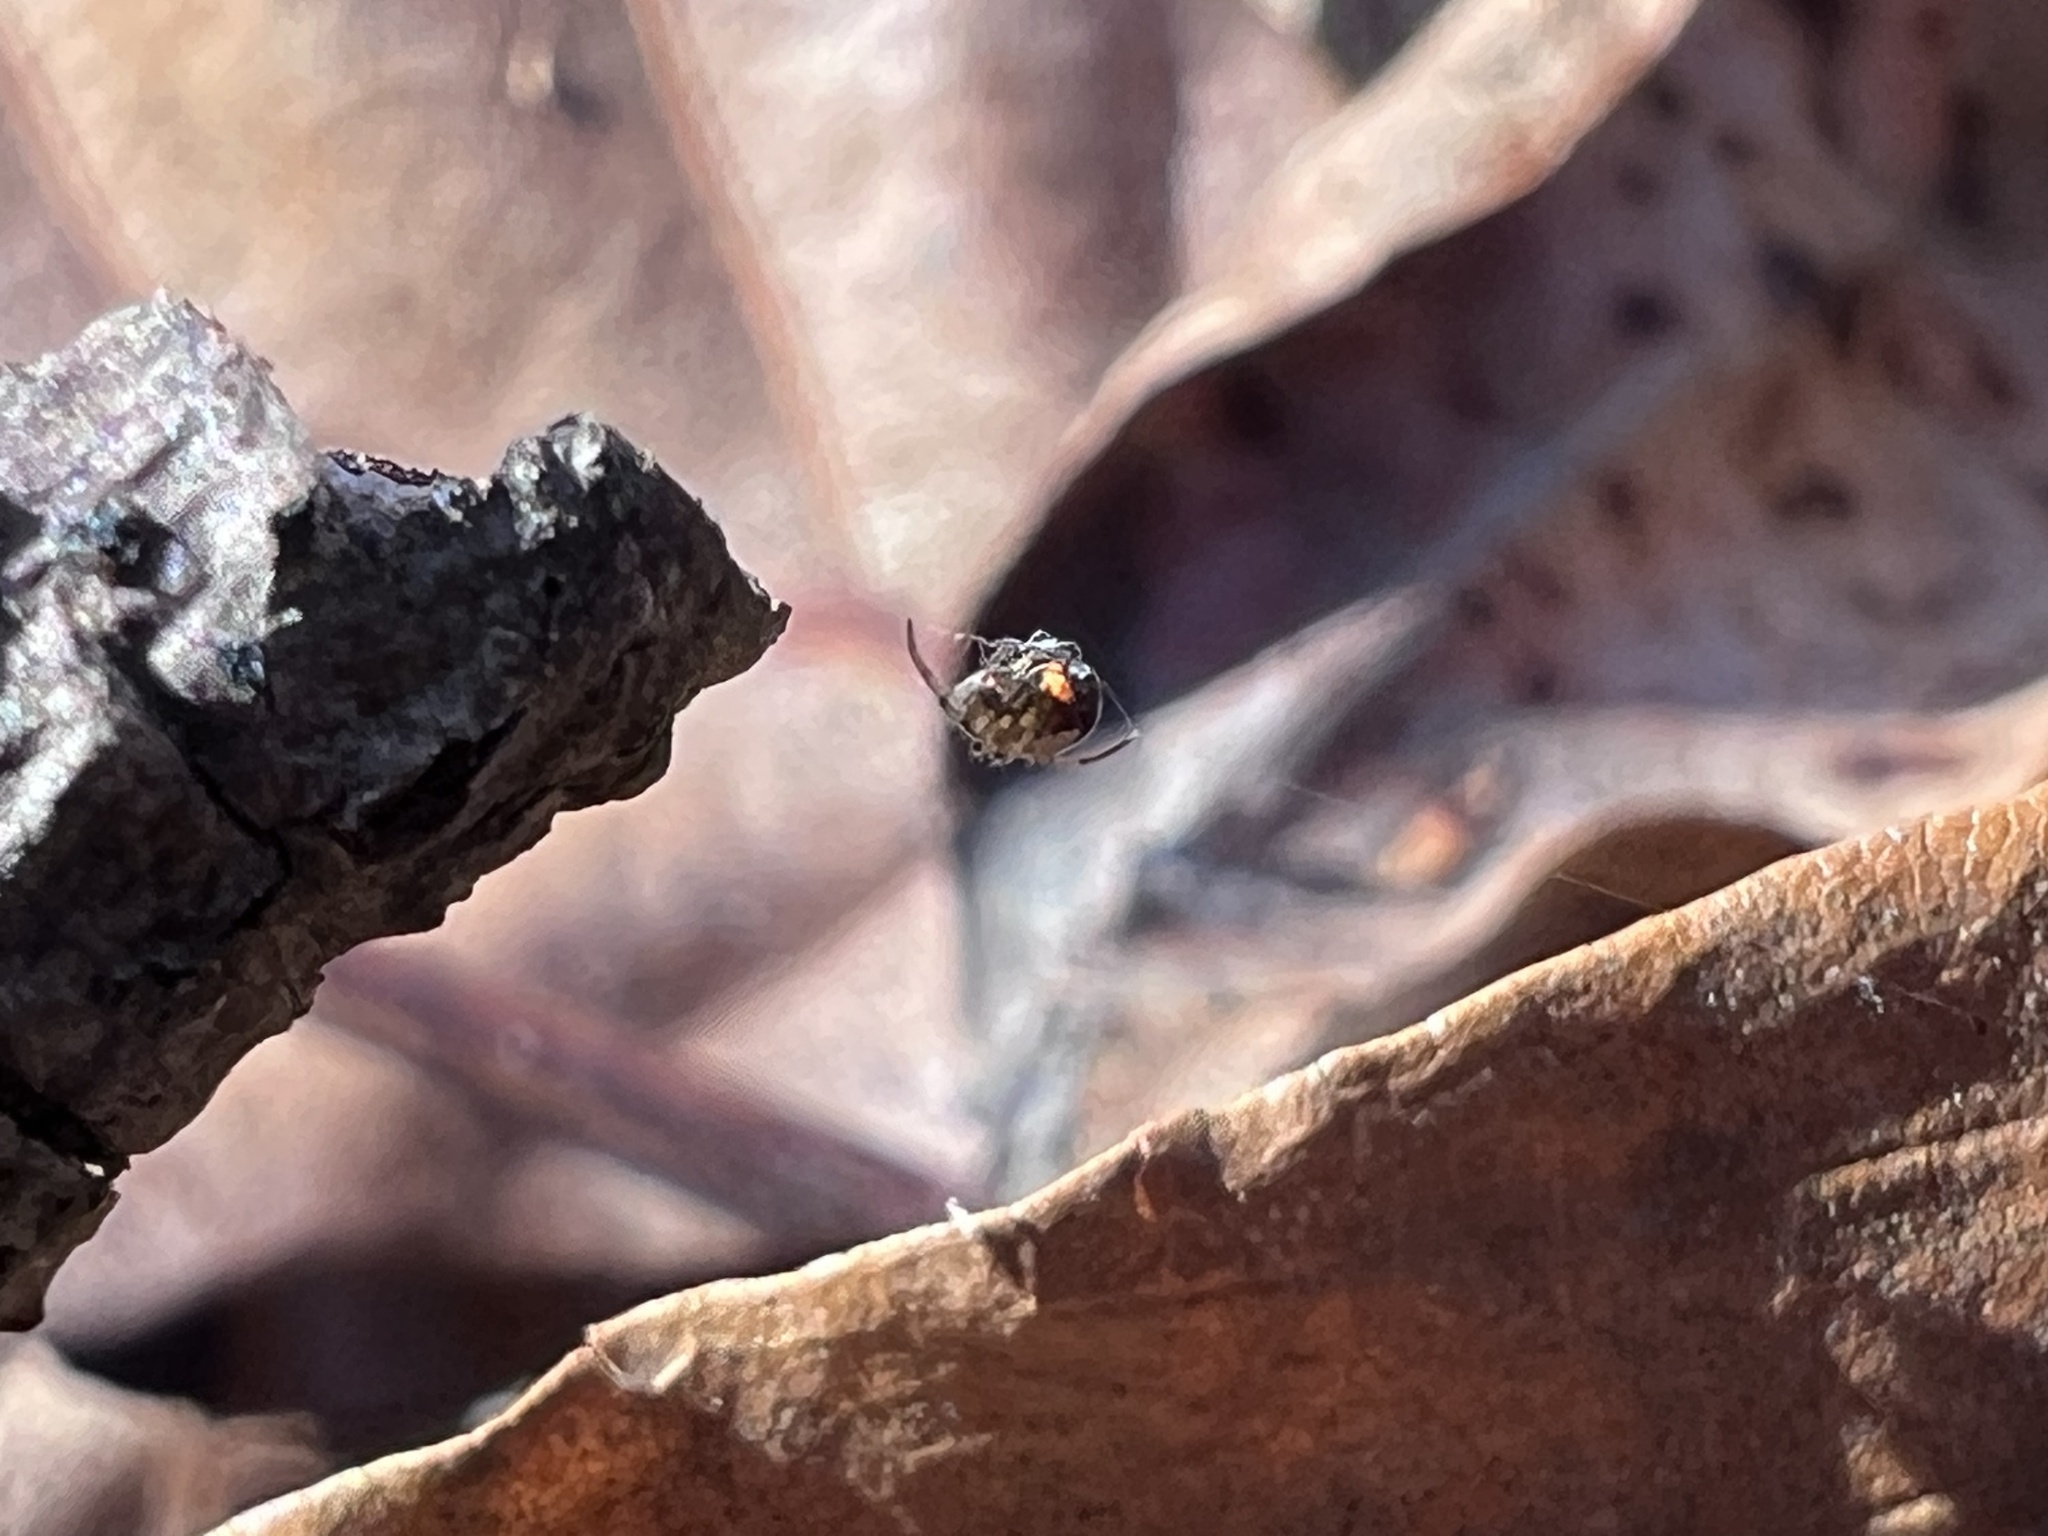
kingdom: Animalia
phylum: Arthropoda
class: Arachnida
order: Araneae
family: Tetragnathidae
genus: Leucauge
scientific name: Leucauge venusta
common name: Longjawed orb weavers
